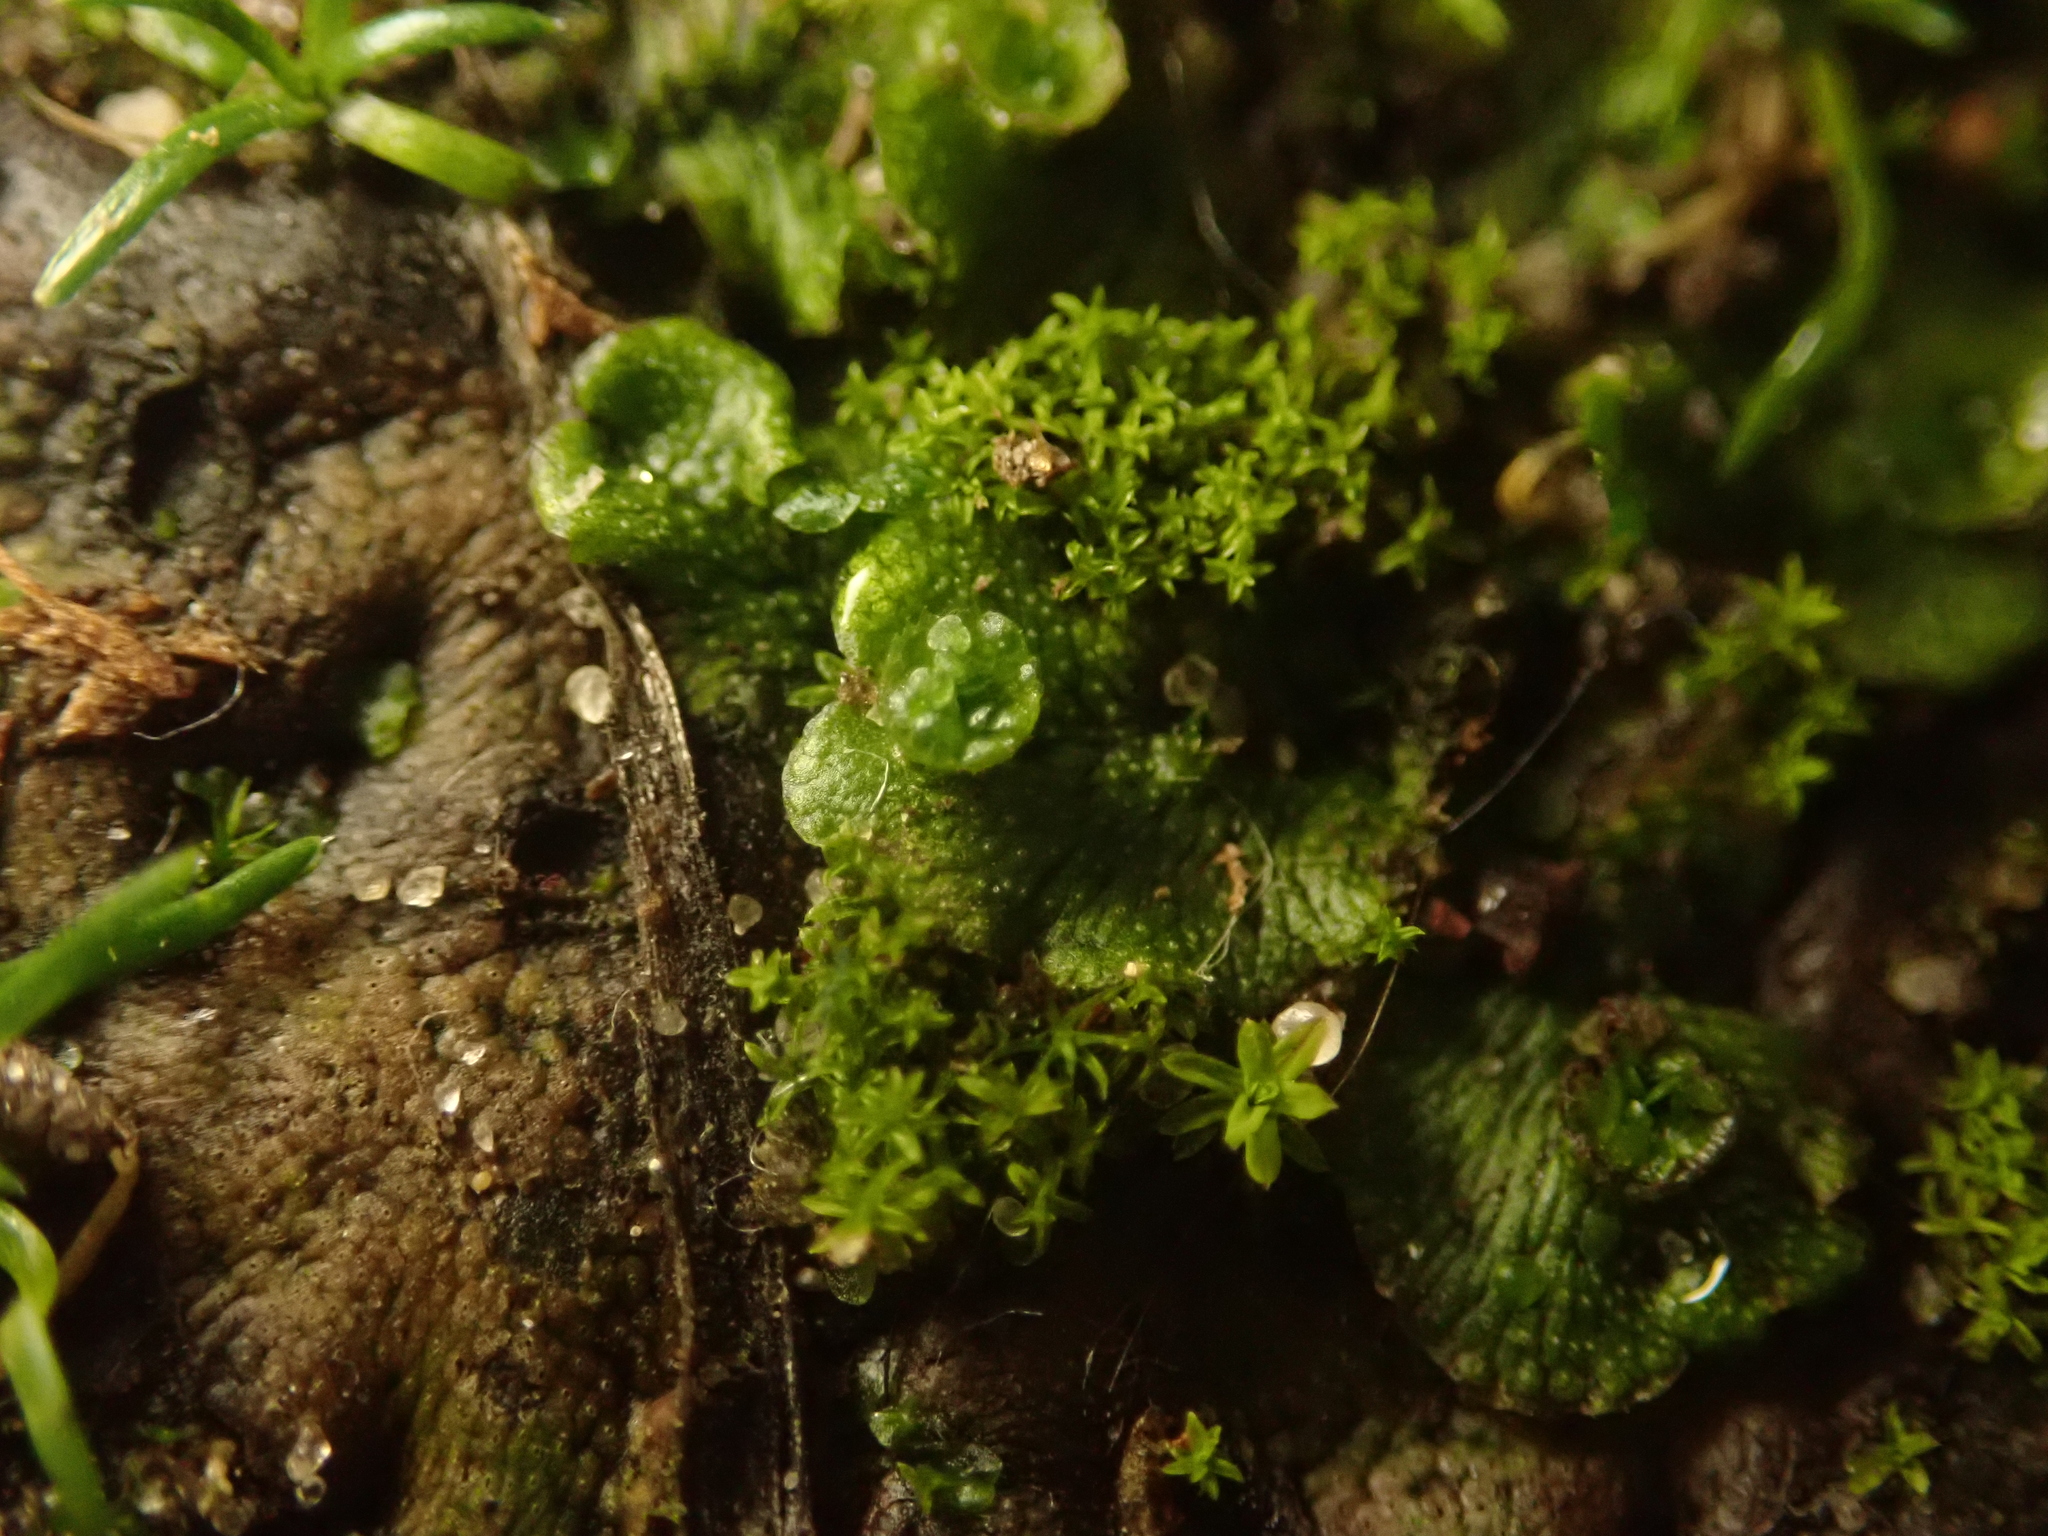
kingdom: Plantae
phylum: Marchantiophyta
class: Marchantiopsida
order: Marchantiales
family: Marchantiaceae
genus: Marchantia
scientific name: Marchantia polymorpha
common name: Common liverwort
